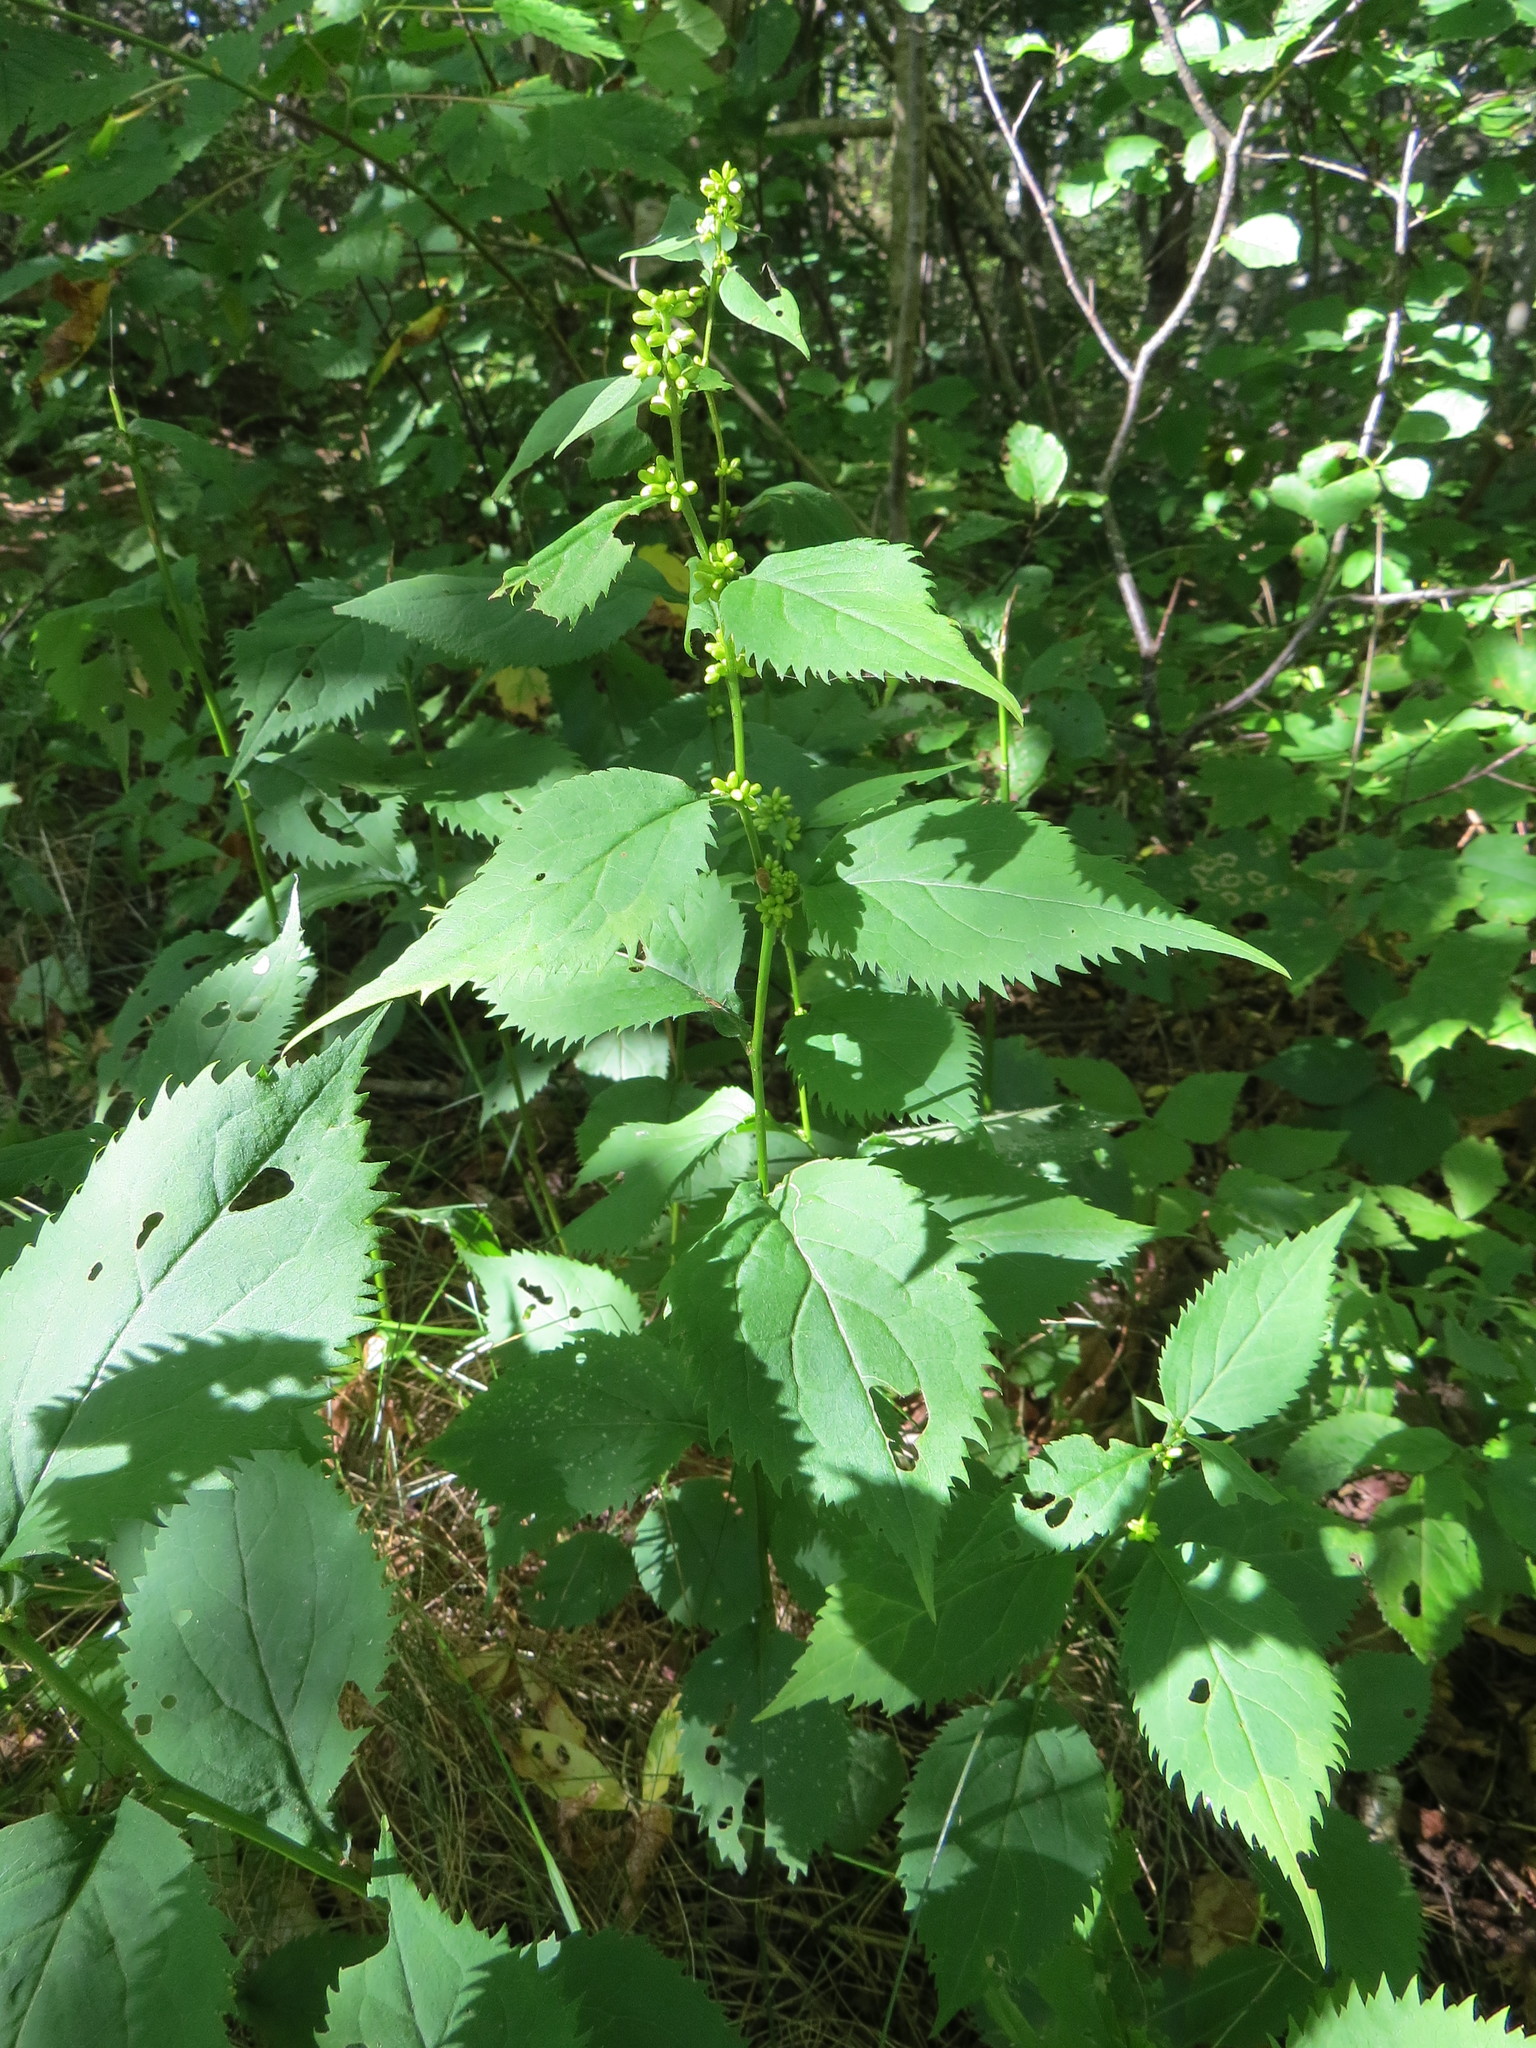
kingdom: Plantae
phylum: Tracheophyta
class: Magnoliopsida
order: Asterales
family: Asteraceae
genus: Solidago
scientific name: Solidago flexicaulis
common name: Zig-zag goldenrod
